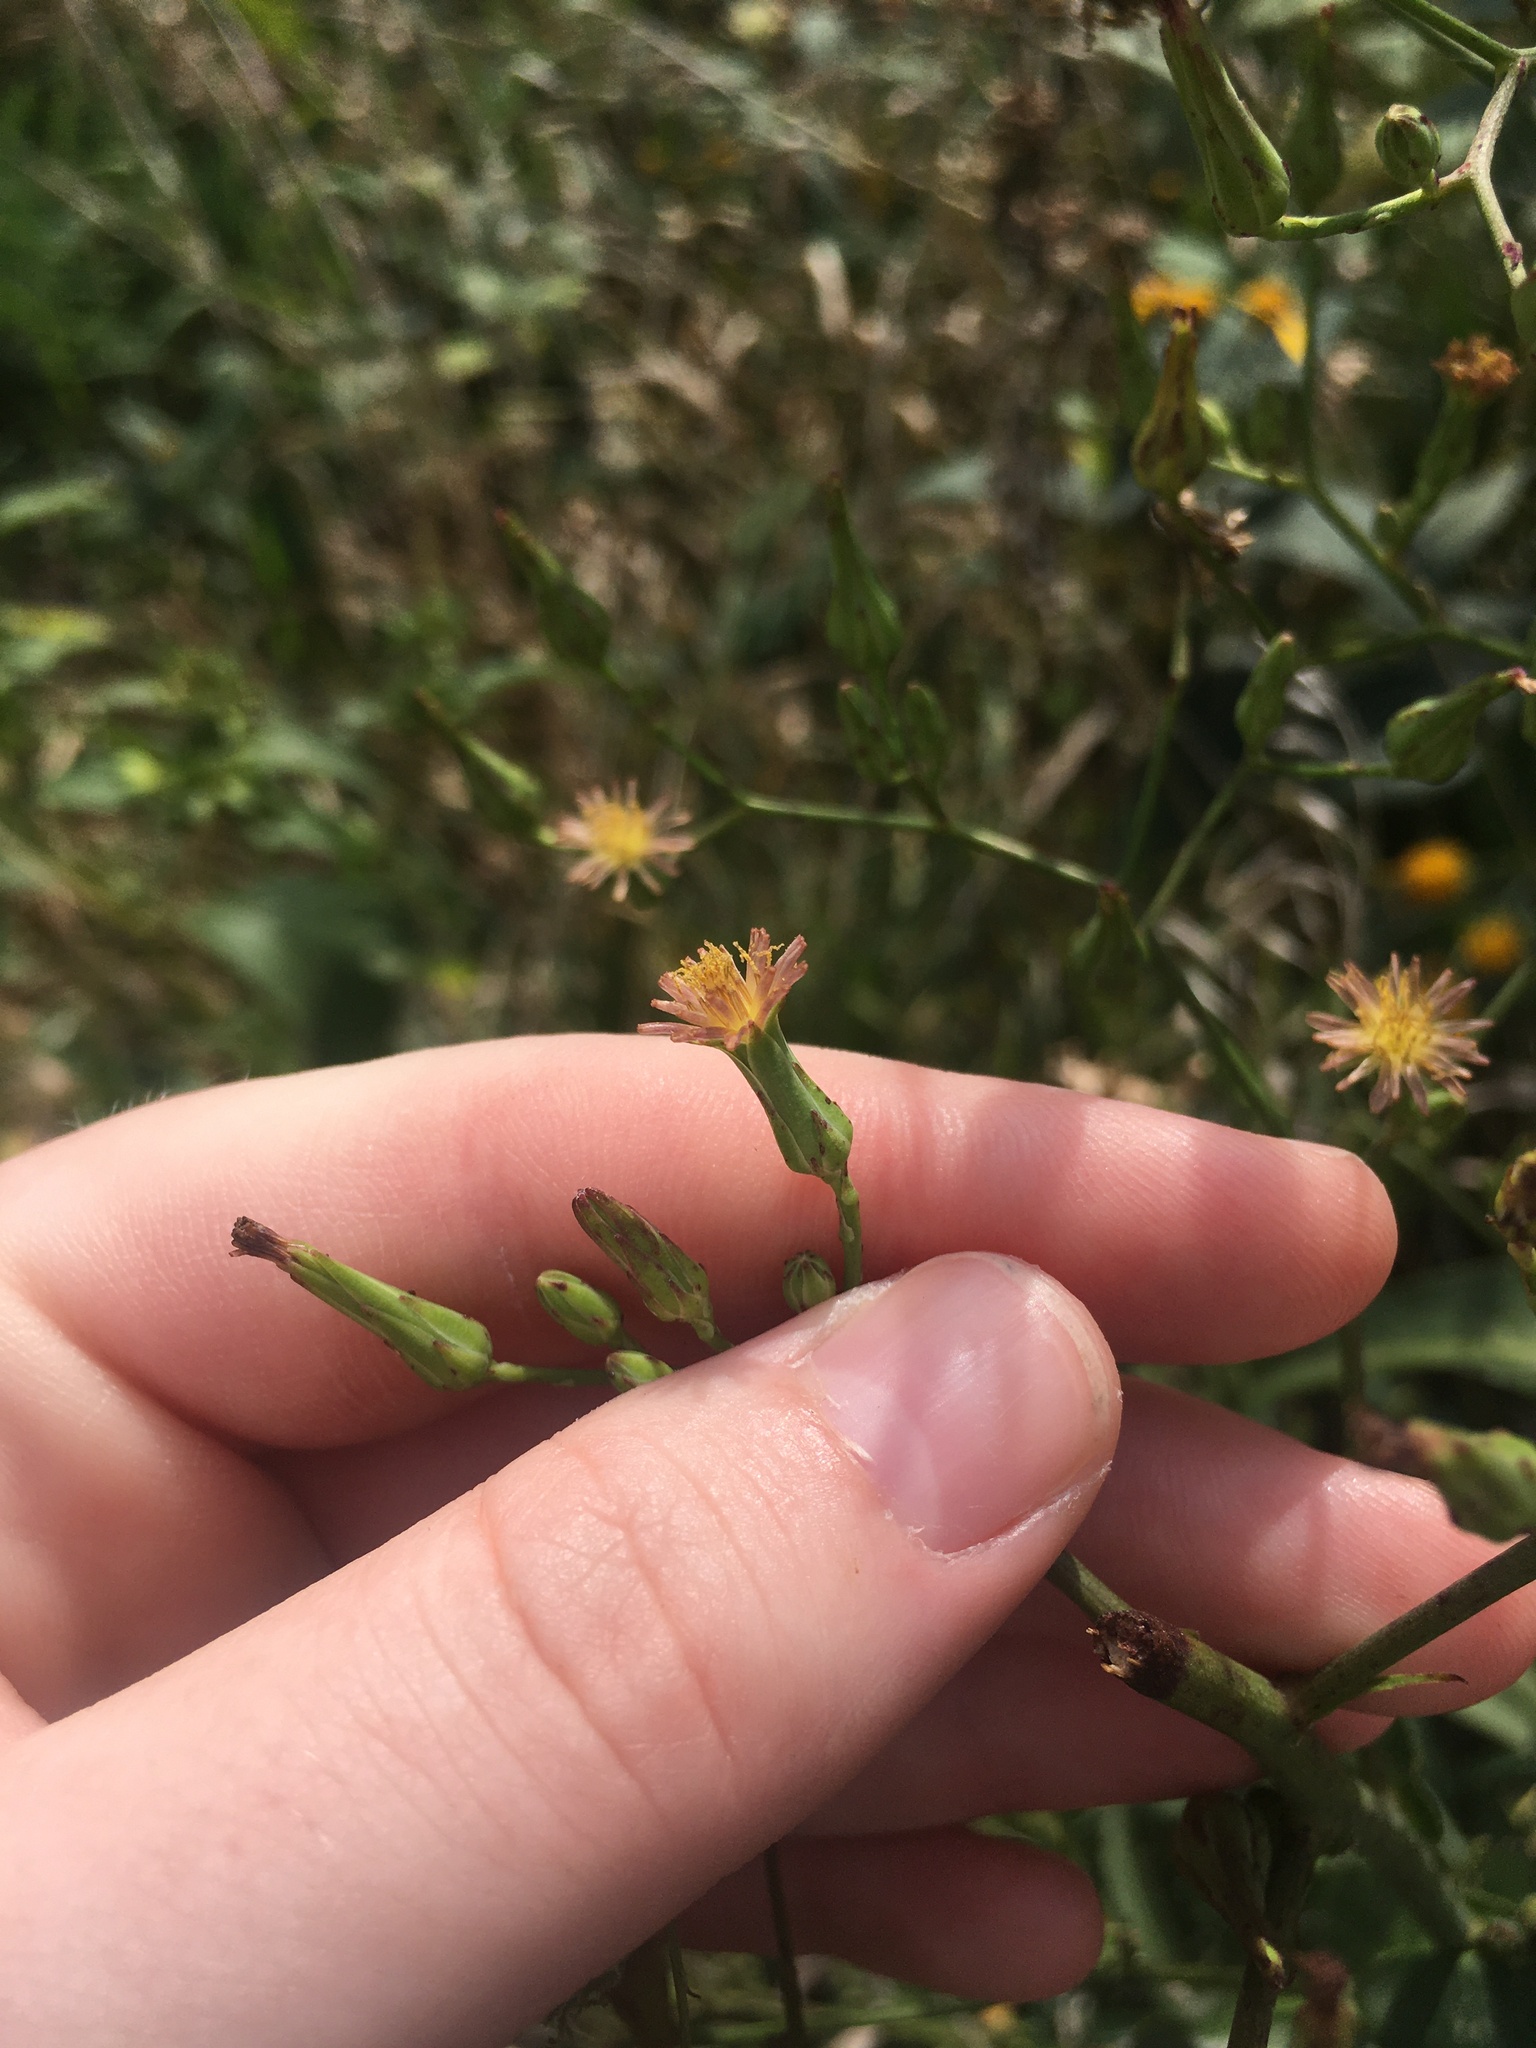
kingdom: Plantae
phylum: Tracheophyta
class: Magnoliopsida
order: Asterales
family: Asteraceae
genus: Lactuca
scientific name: Lactuca ludoviciana
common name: Louisiana lettuce
